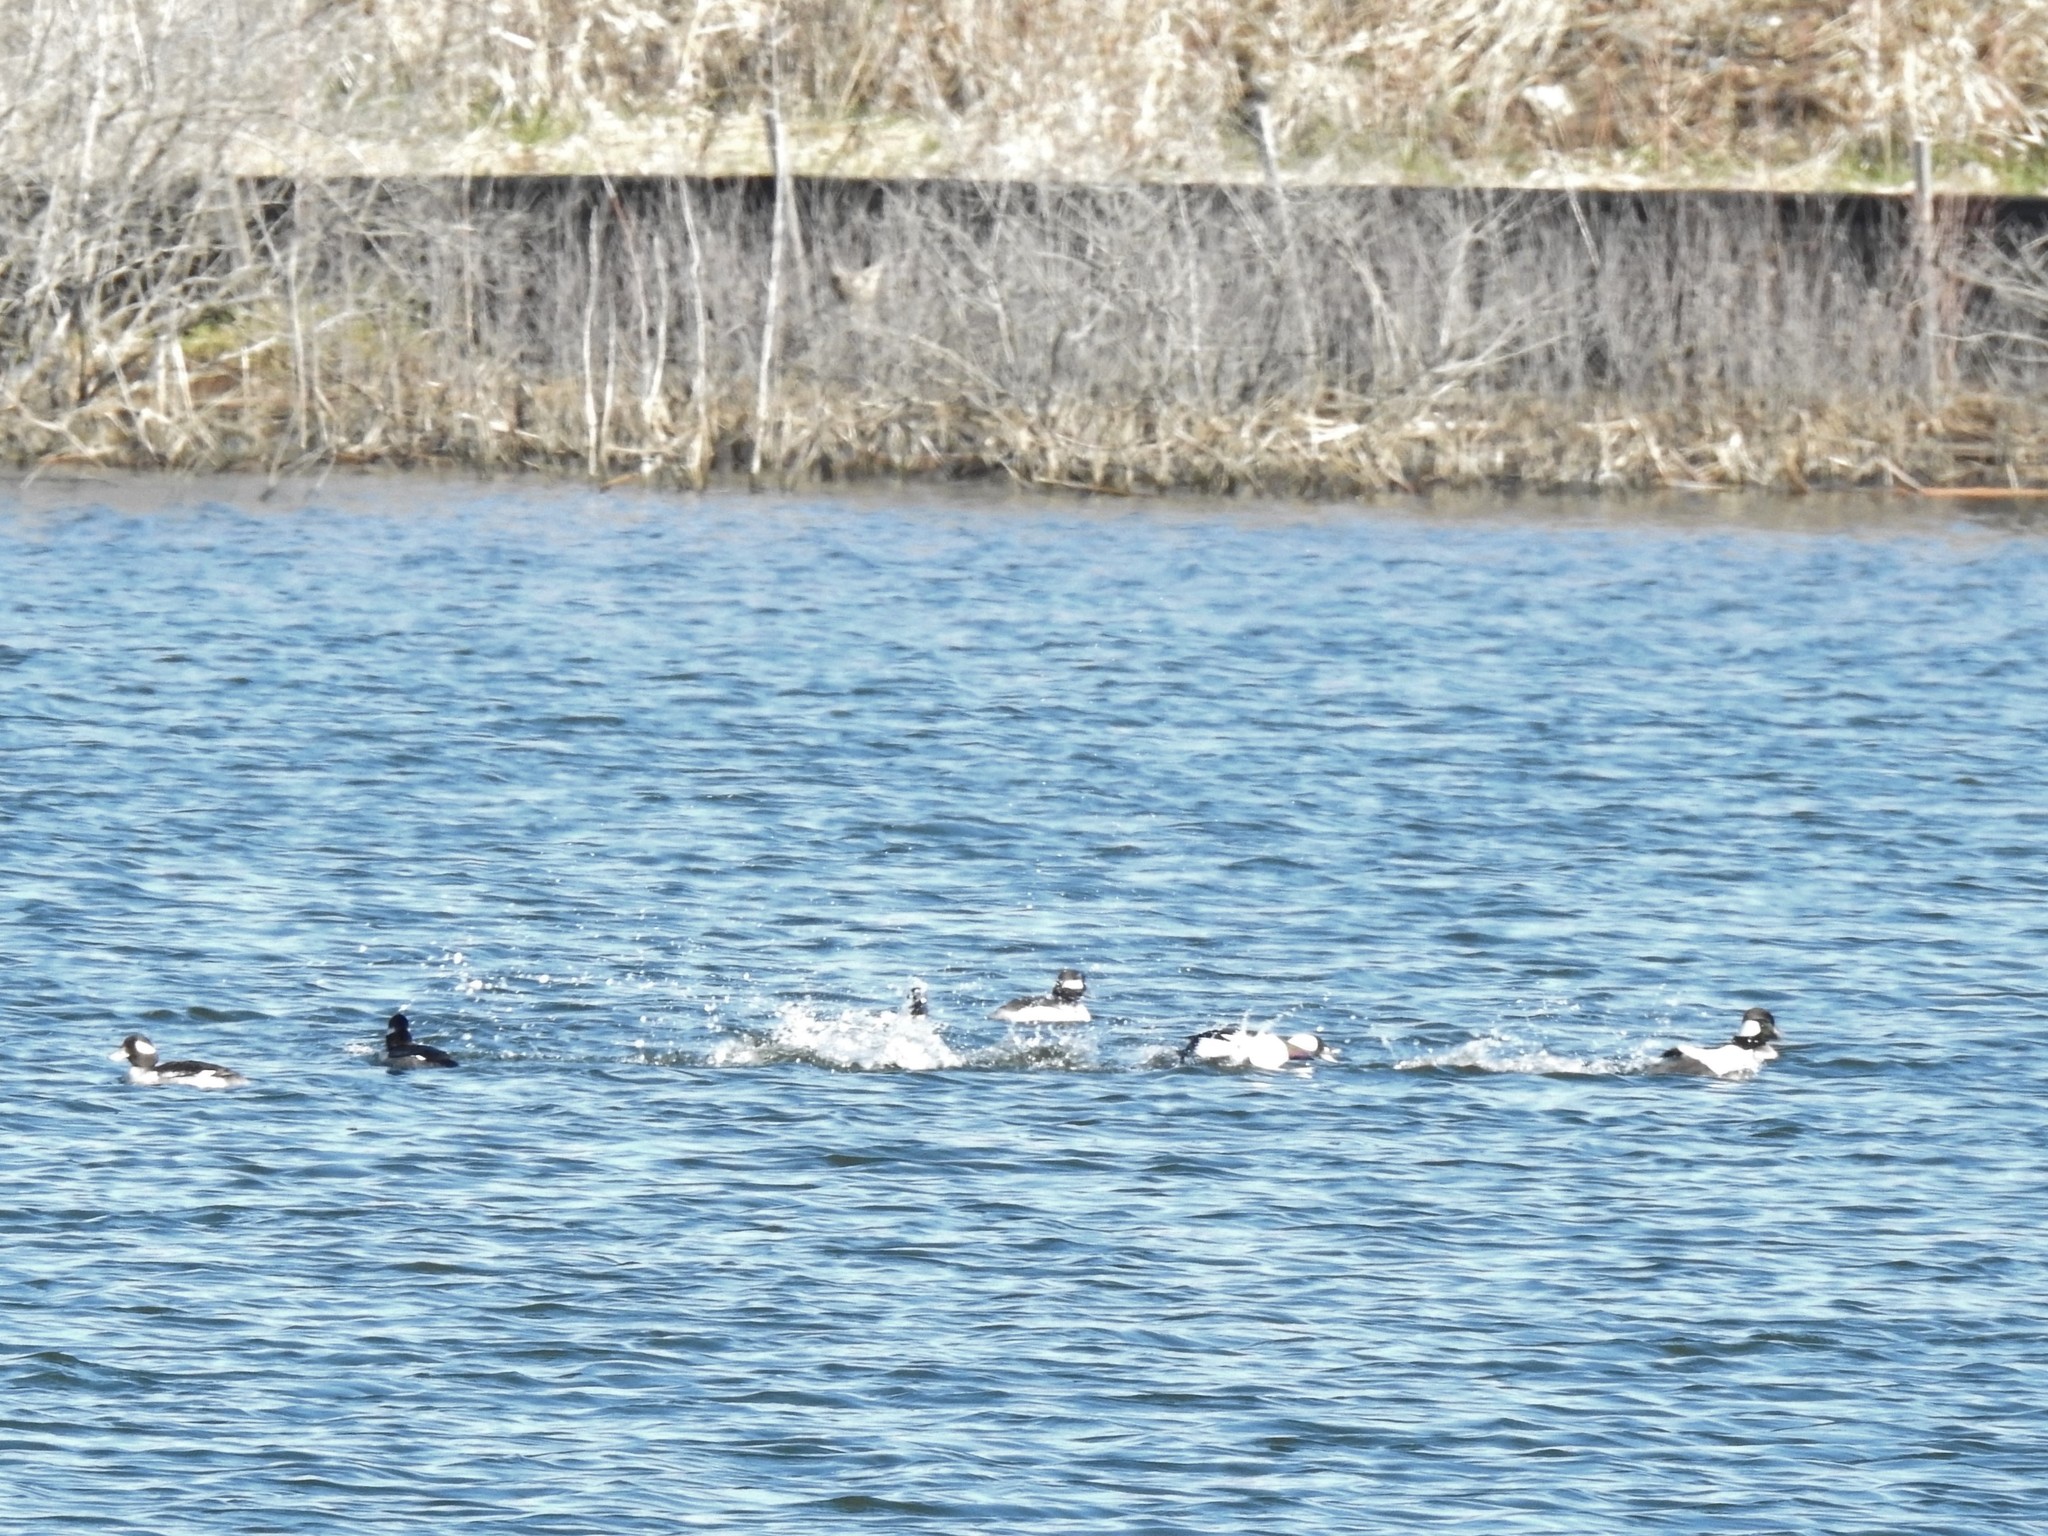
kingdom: Animalia
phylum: Chordata
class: Aves
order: Anseriformes
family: Anatidae
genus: Bucephala
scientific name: Bucephala albeola
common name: Bufflehead
